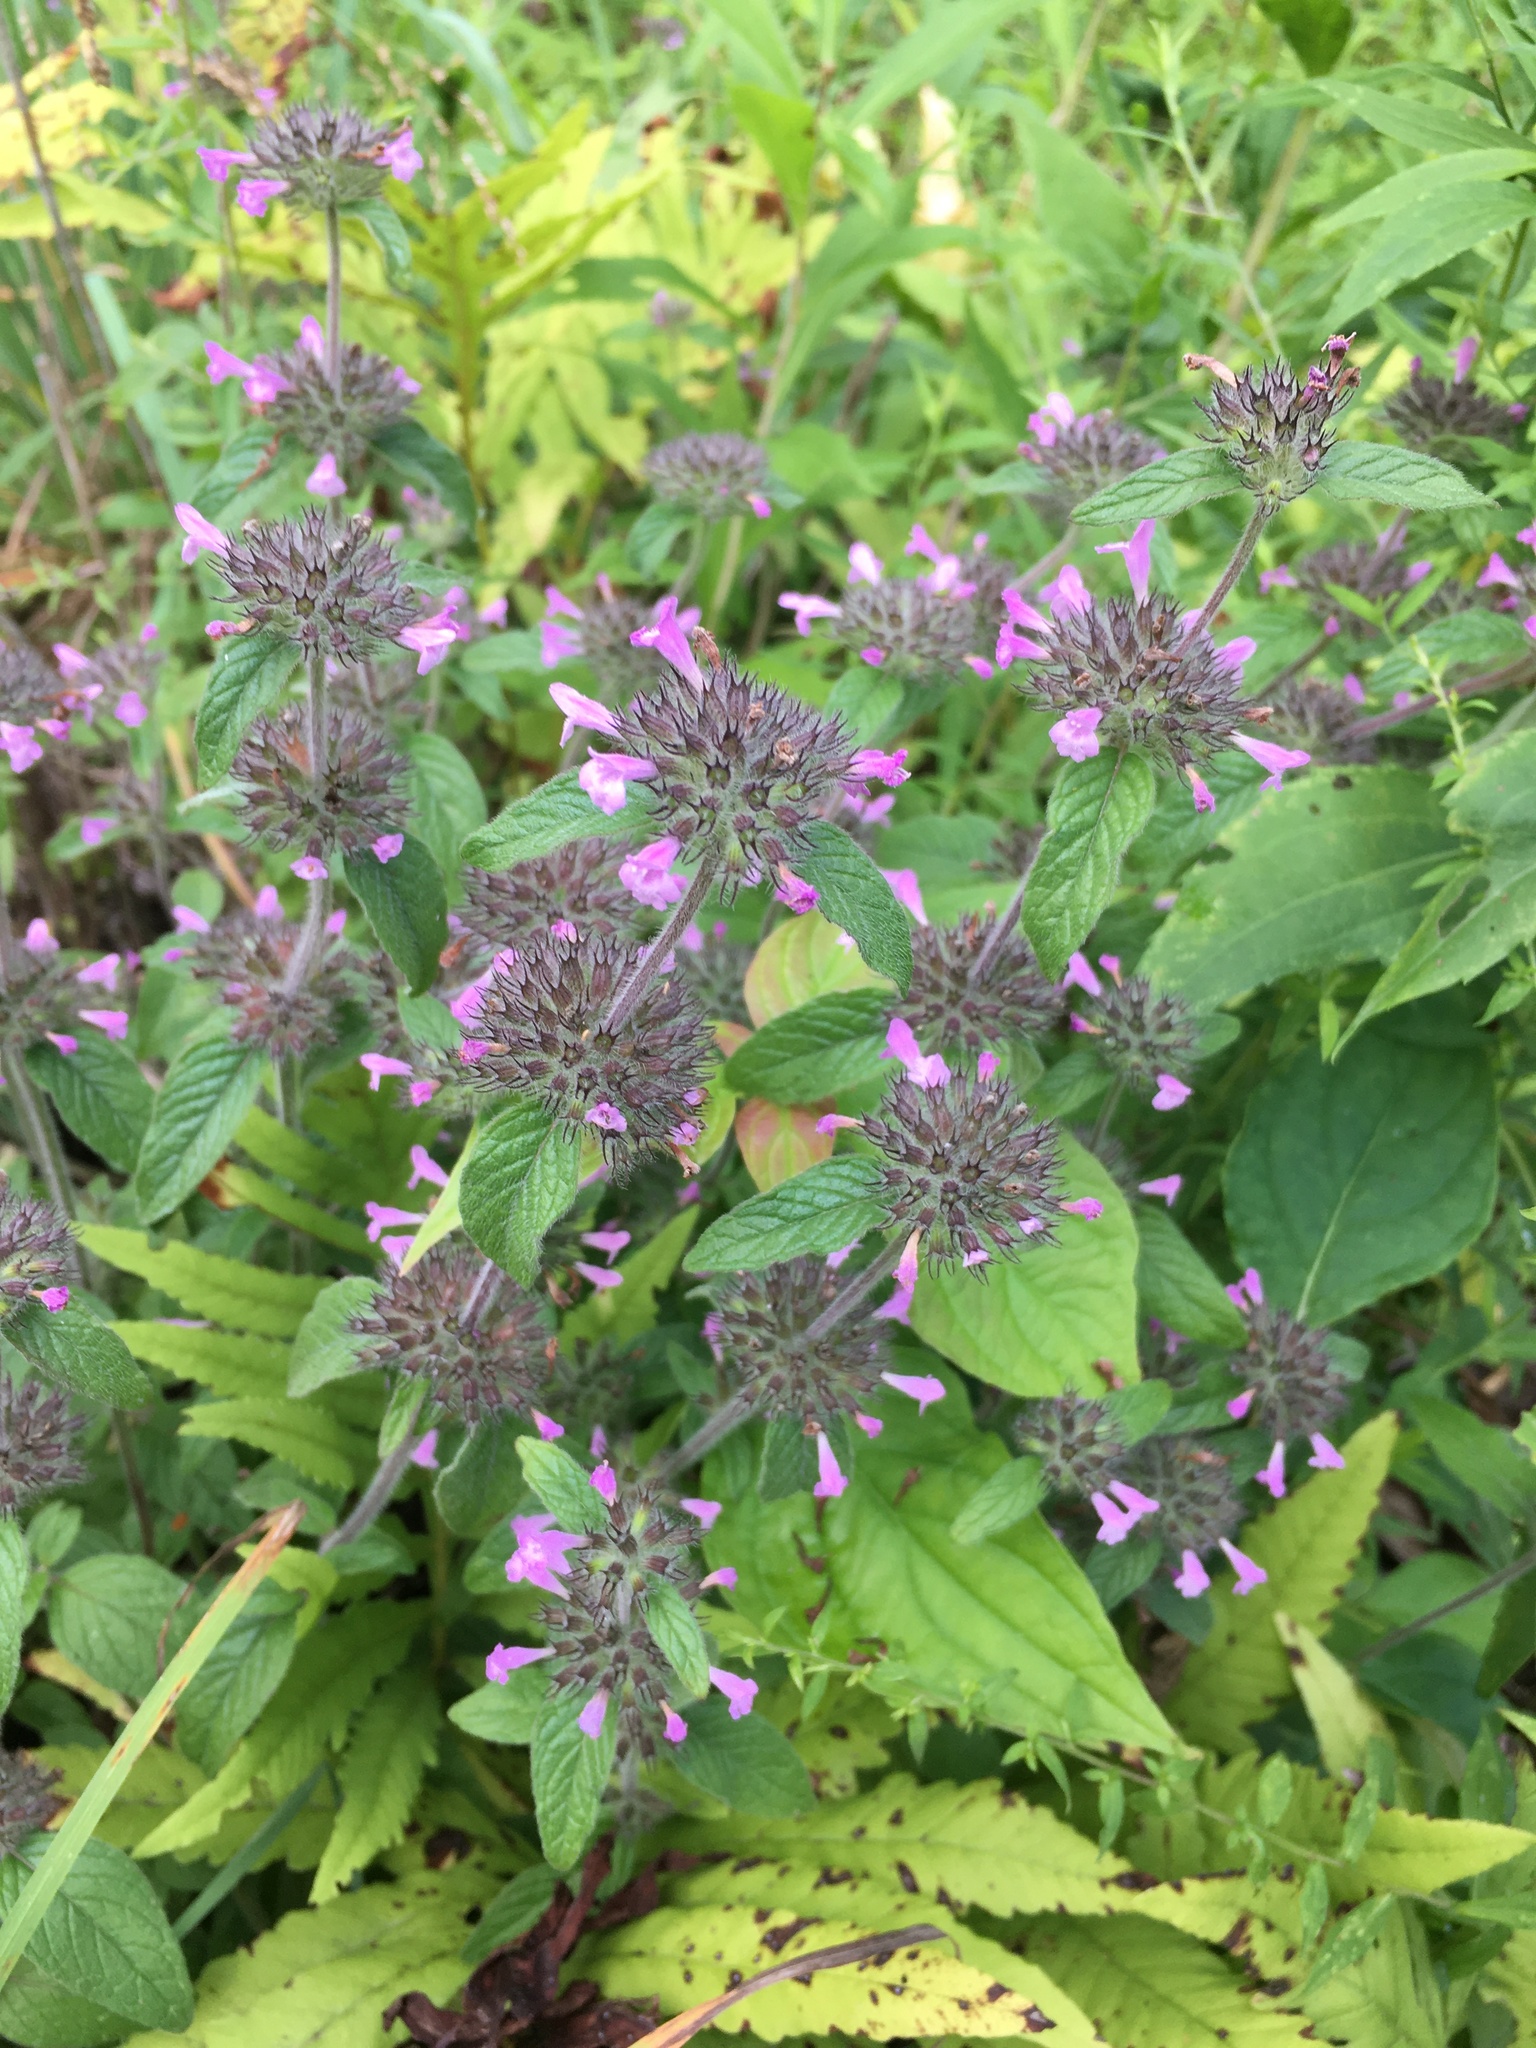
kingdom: Plantae
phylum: Tracheophyta
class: Magnoliopsida
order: Lamiales
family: Lamiaceae
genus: Clinopodium
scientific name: Clinopodium vulgare
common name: Wild basil
